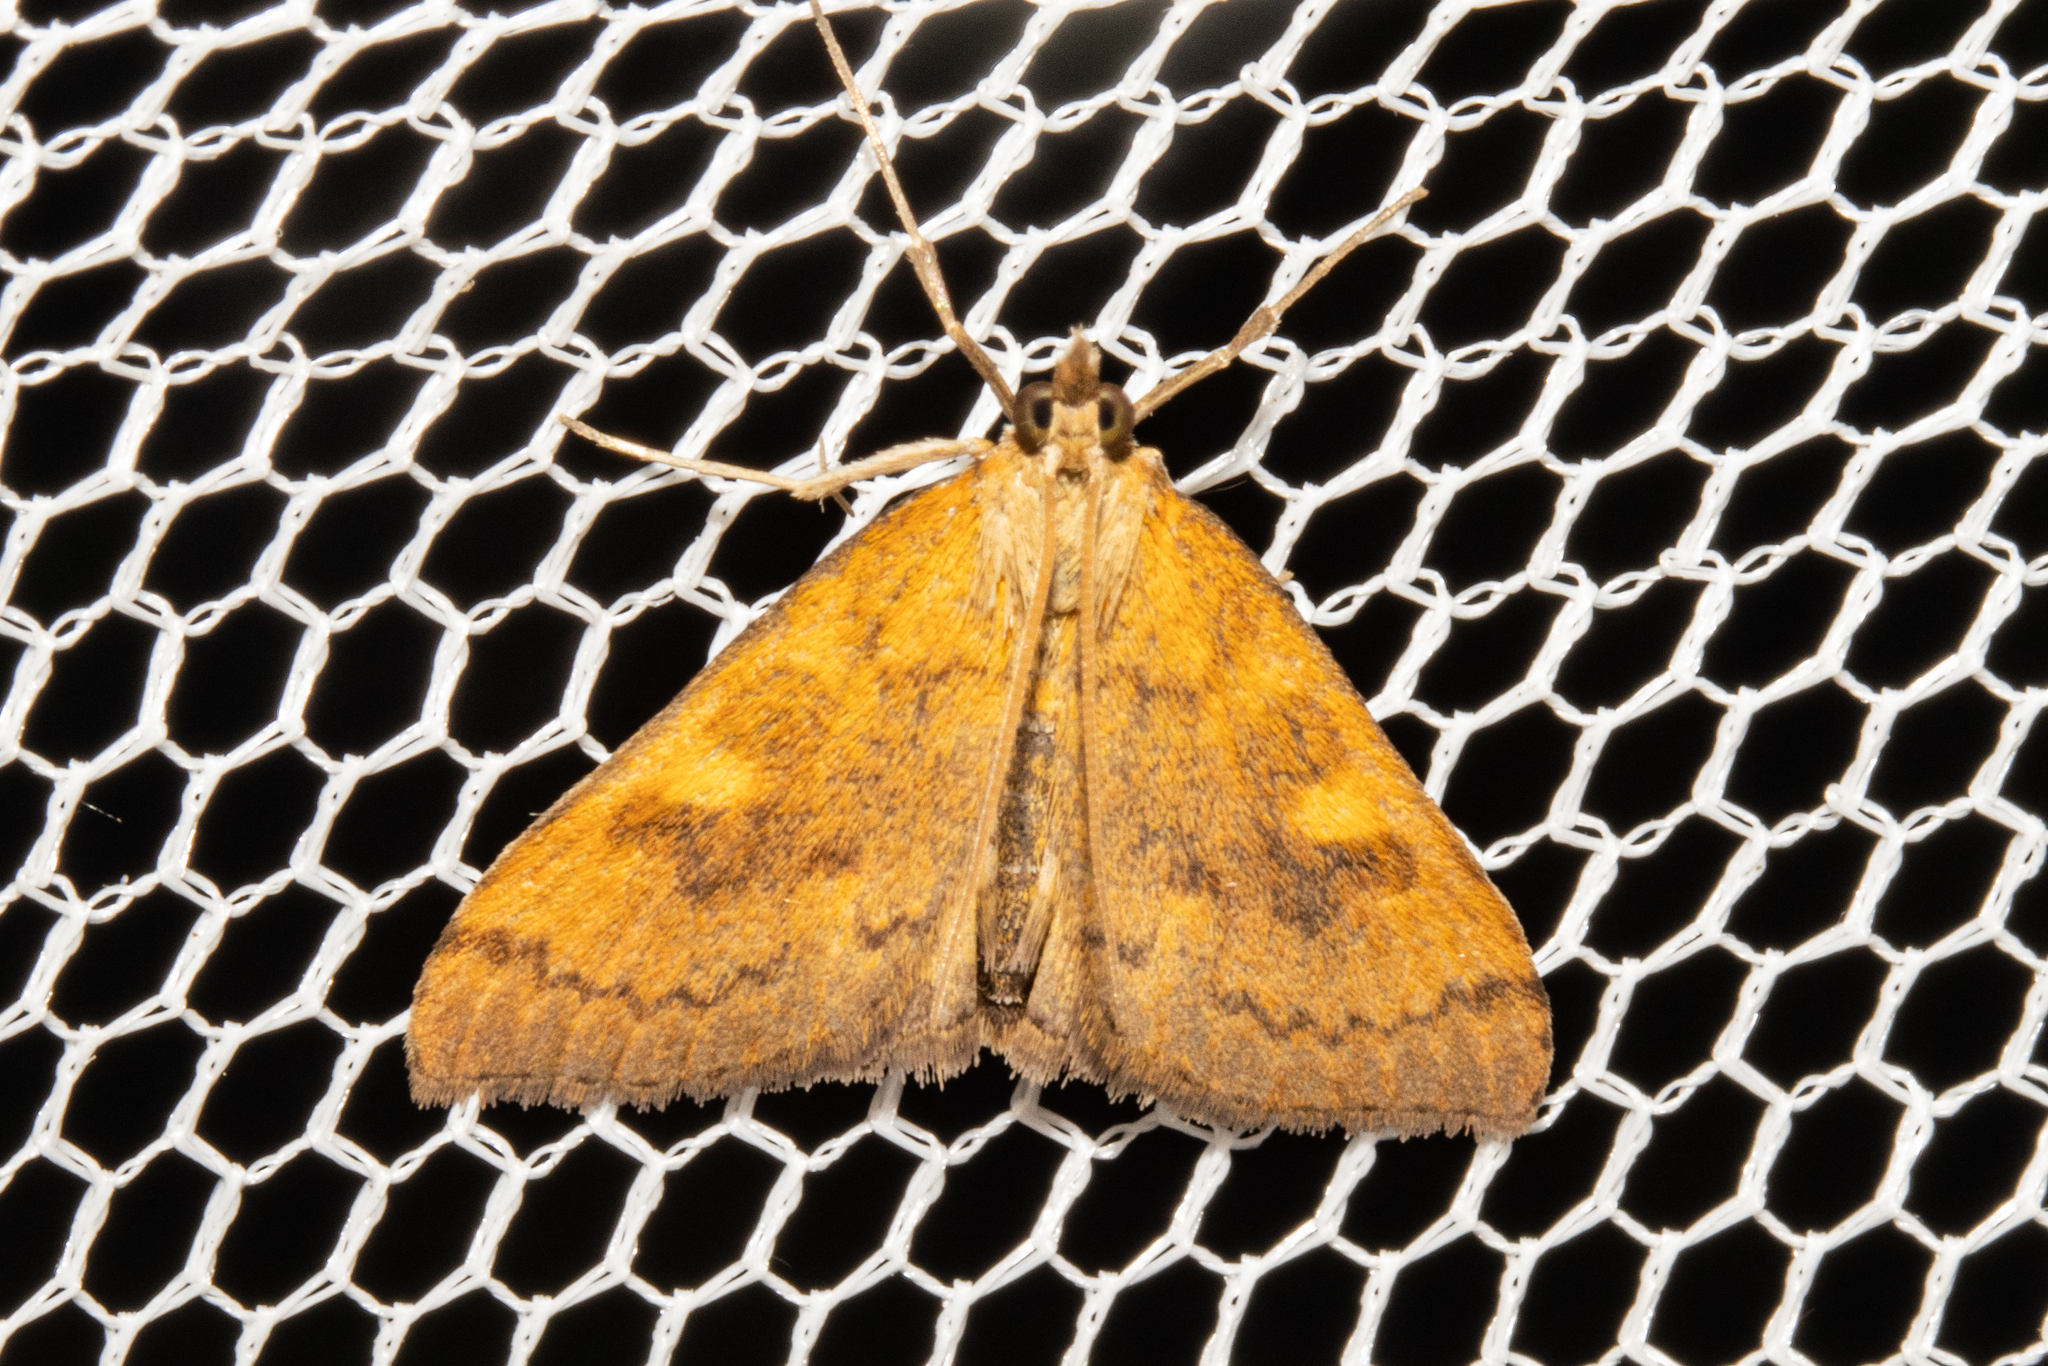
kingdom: Animalia
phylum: Arthropoda
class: Insecta
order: Lepidoptera
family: Crambidae
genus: Udea
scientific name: Udea Mnesictena flavidalis
